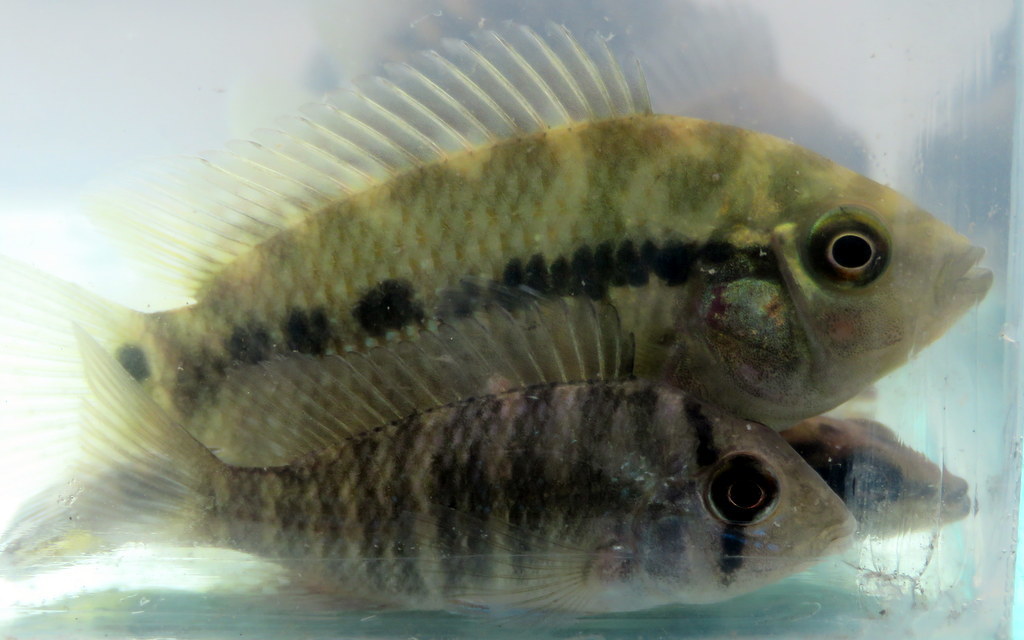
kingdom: Animalia
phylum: Chordata
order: Perciformes
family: Cichlidae
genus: Australoheros
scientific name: Australoheros facetus
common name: Chameleon cichlid
